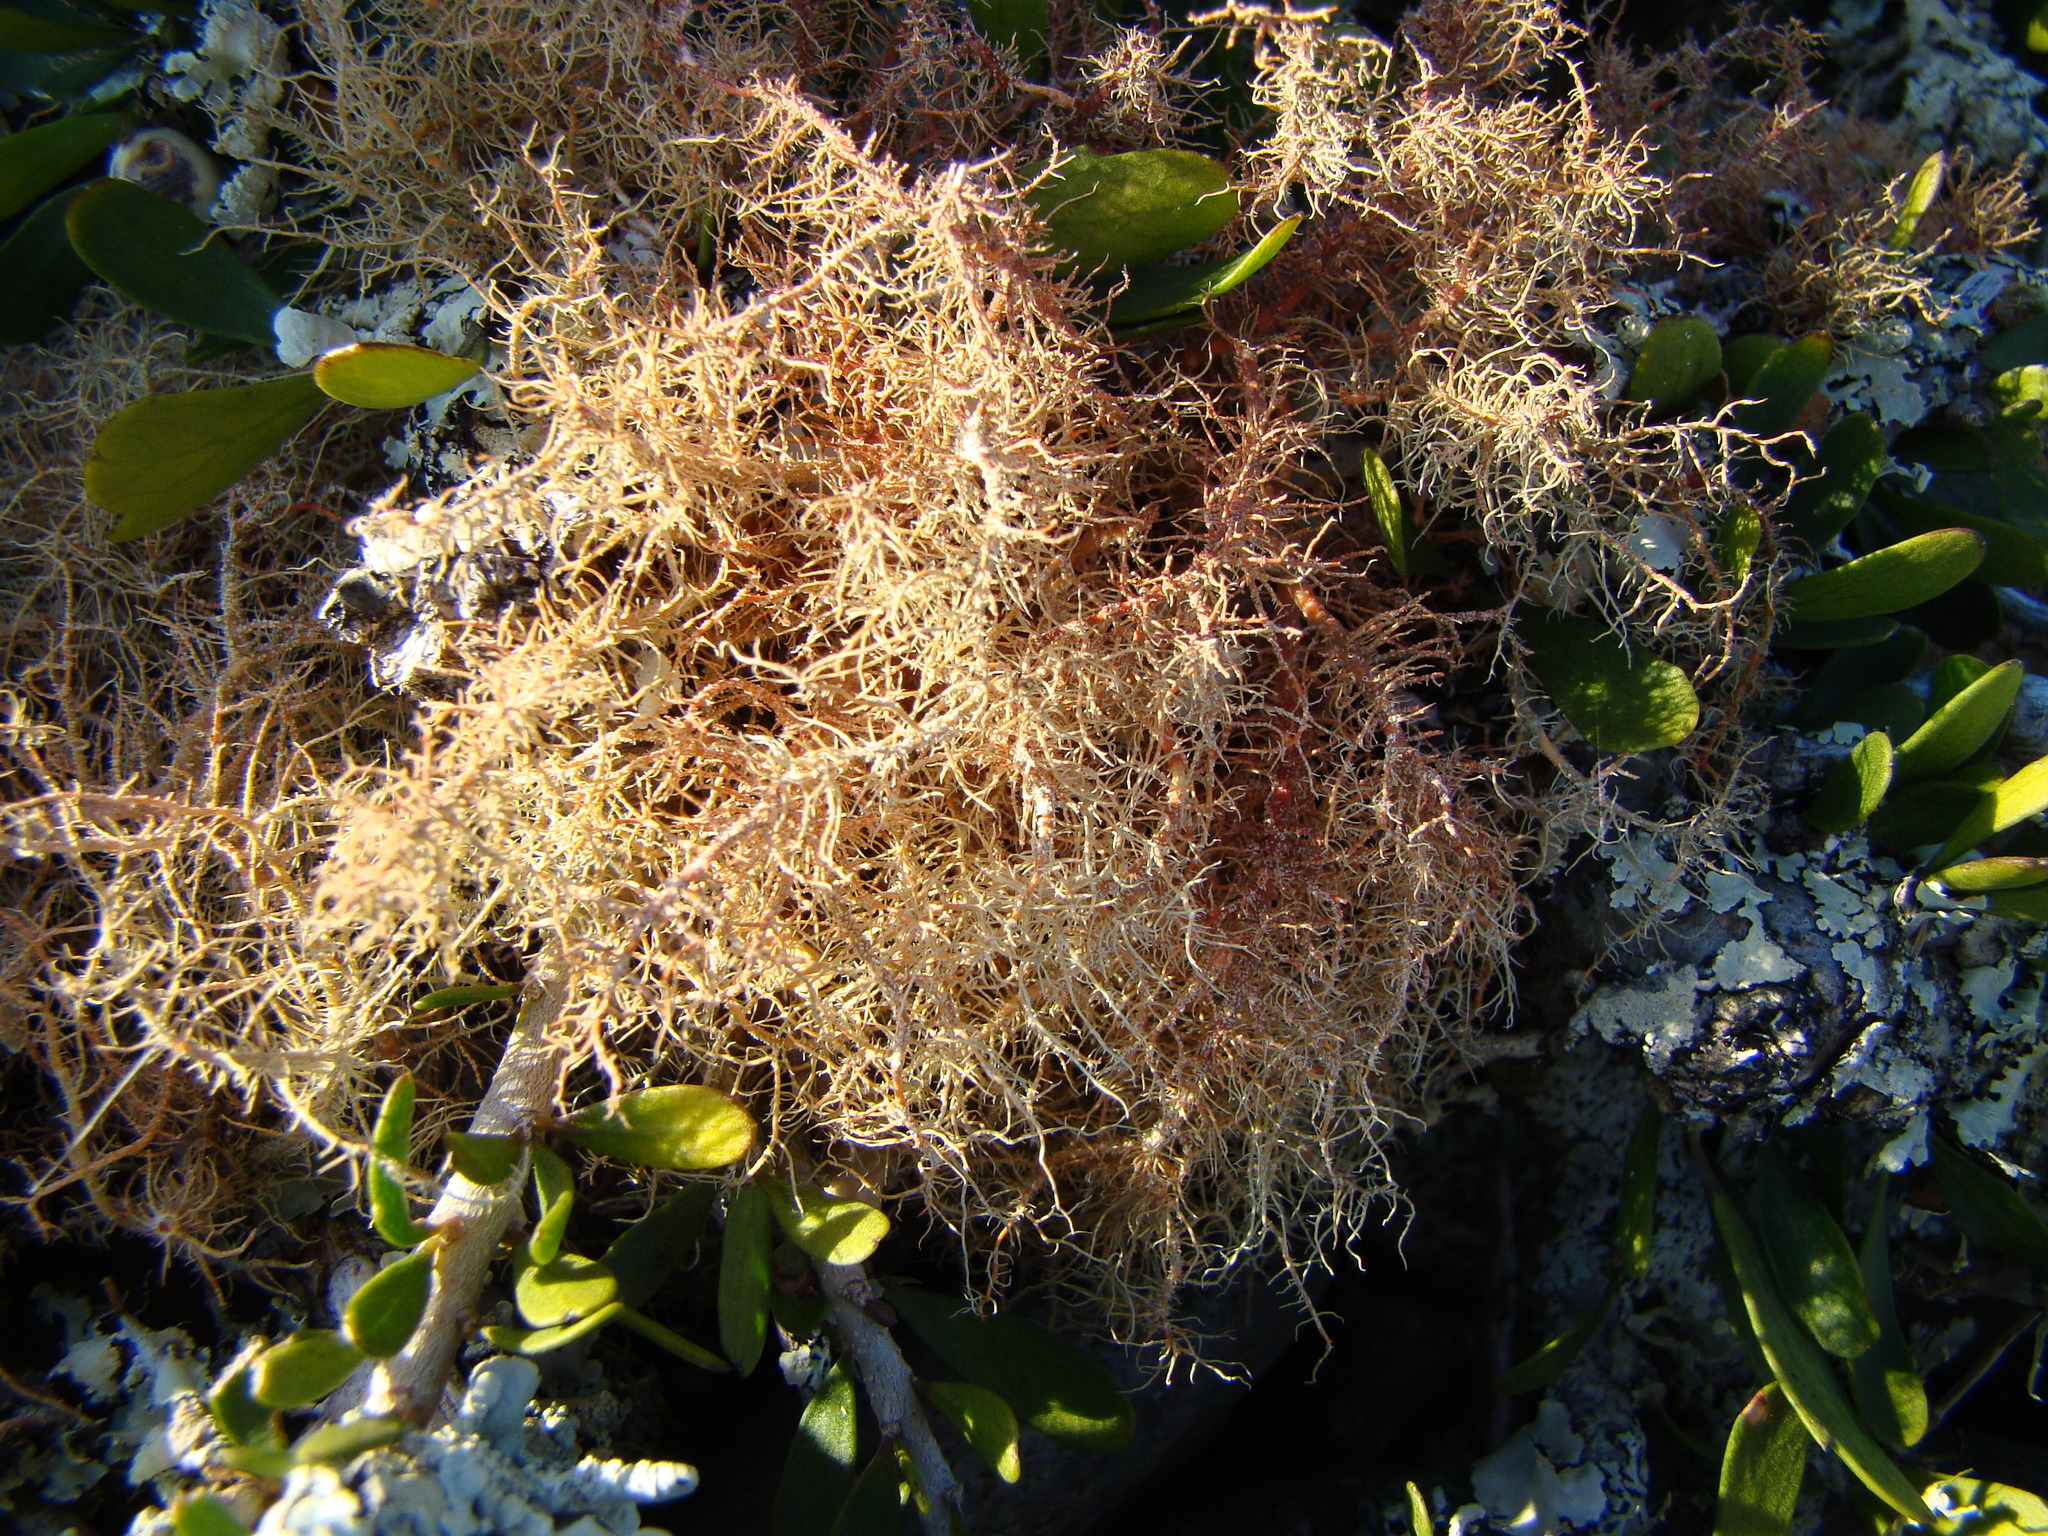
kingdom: Fungi
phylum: Ascomycota
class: Lecanoromycetes
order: Lecanorales
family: Parmeliaceae
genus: Usnea
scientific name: Usnea rubicunda
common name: Red beard lichen
